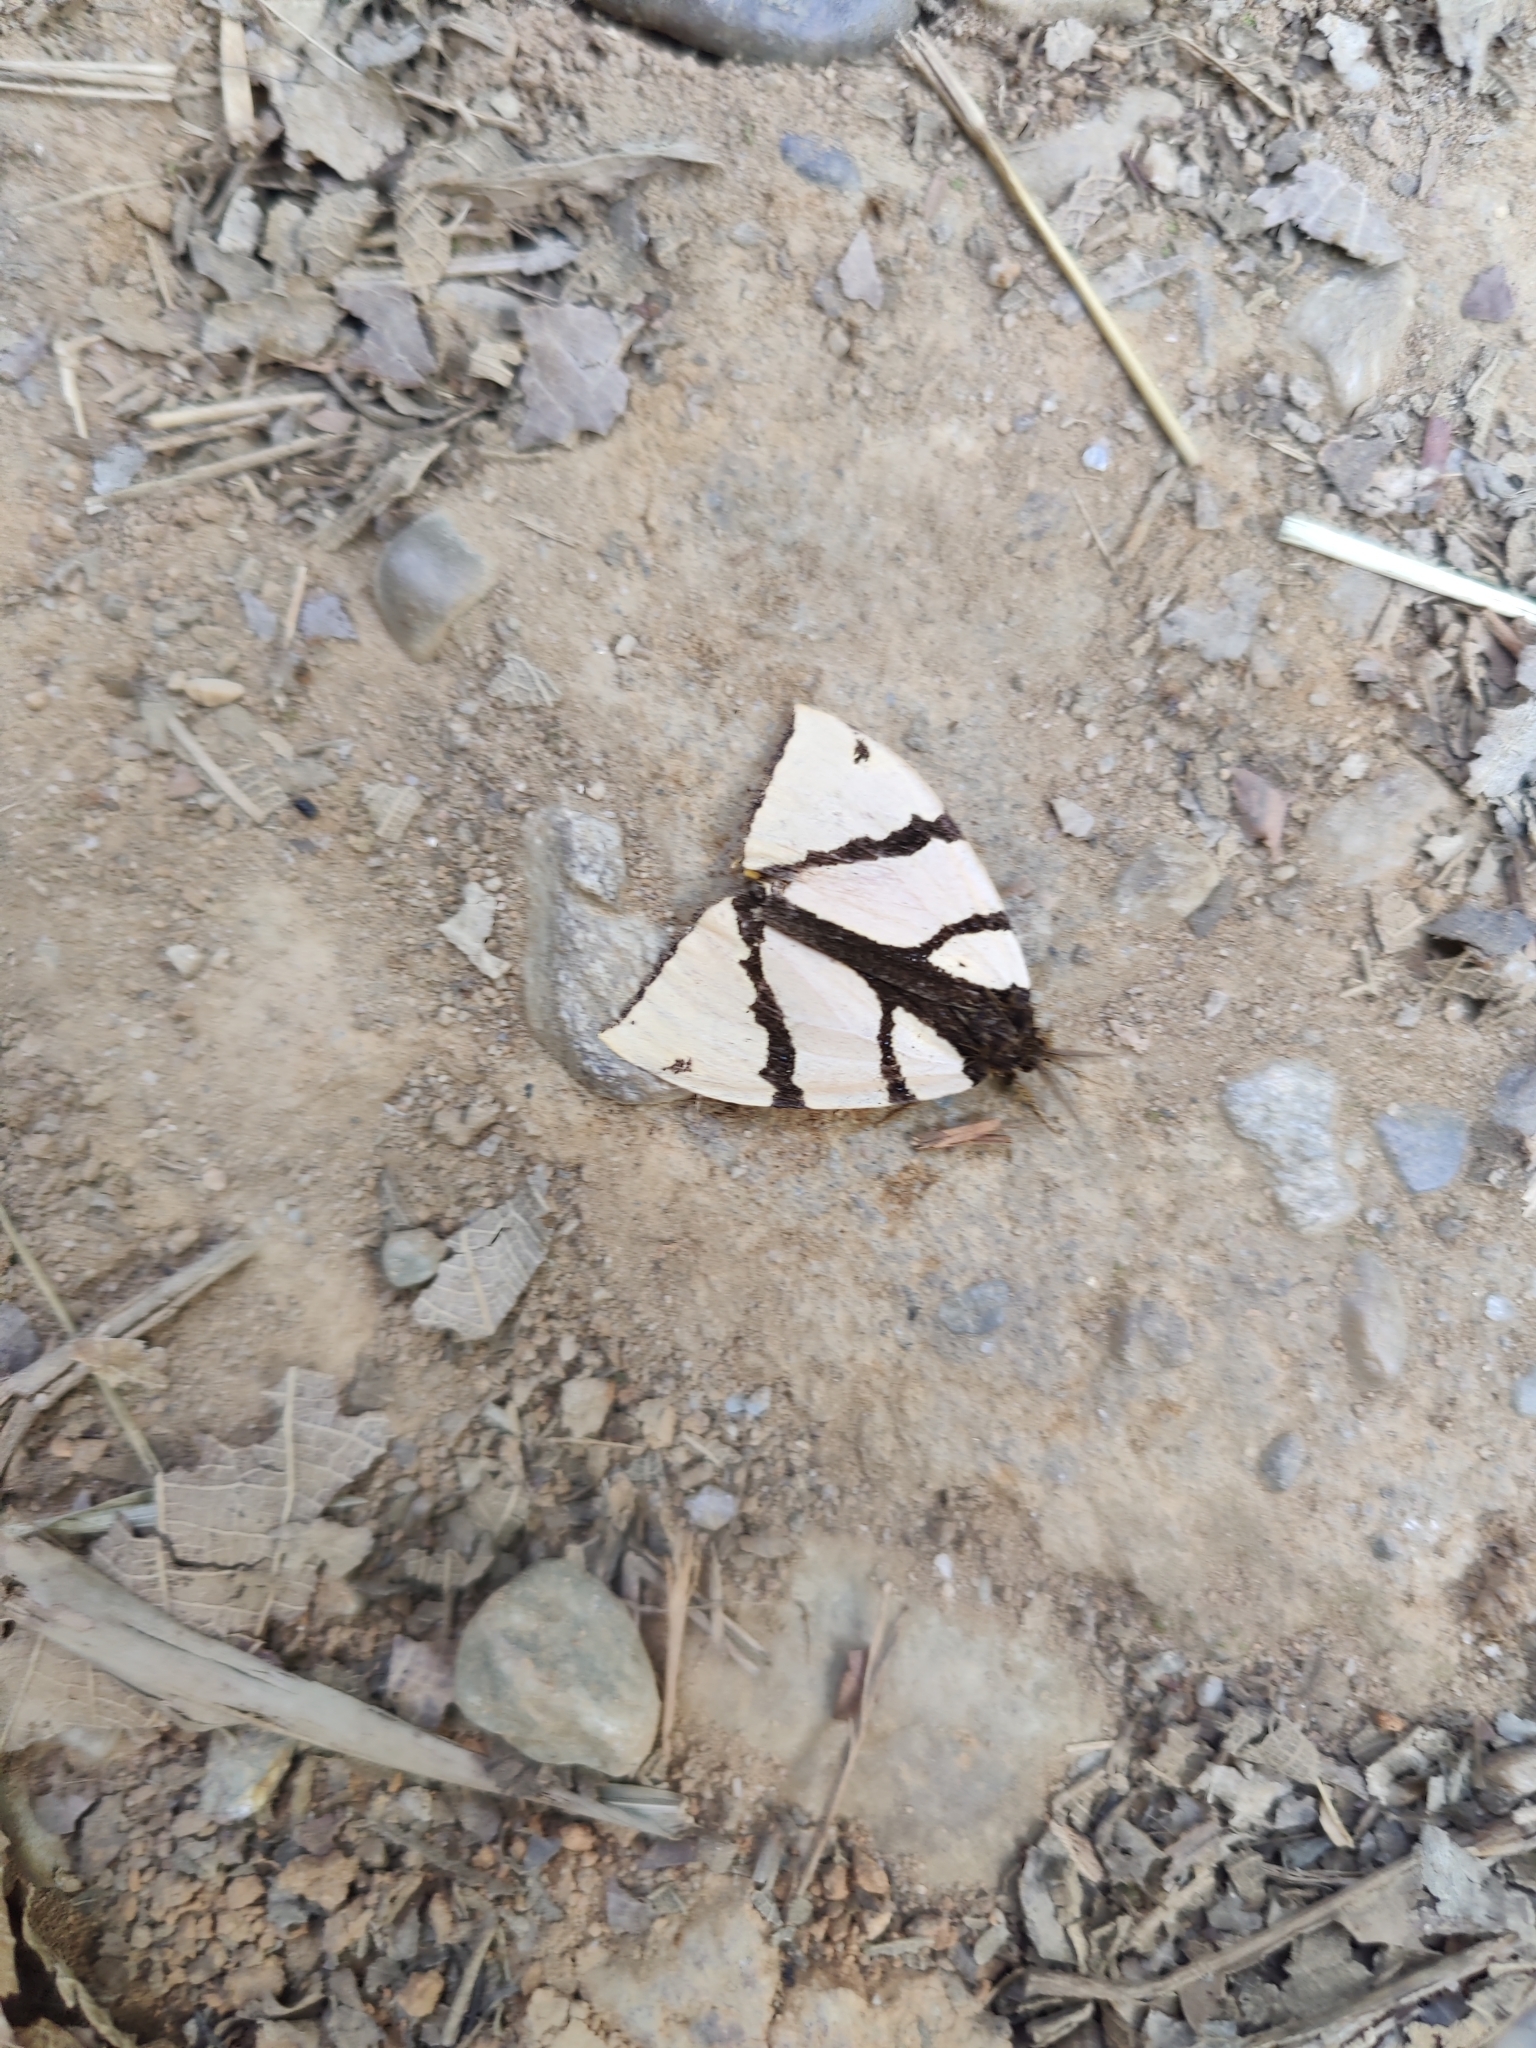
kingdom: Animalia
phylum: Arthropoda
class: Insecta
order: Lepidoptera
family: Erebidae
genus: Numenes
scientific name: Numenes siletti
